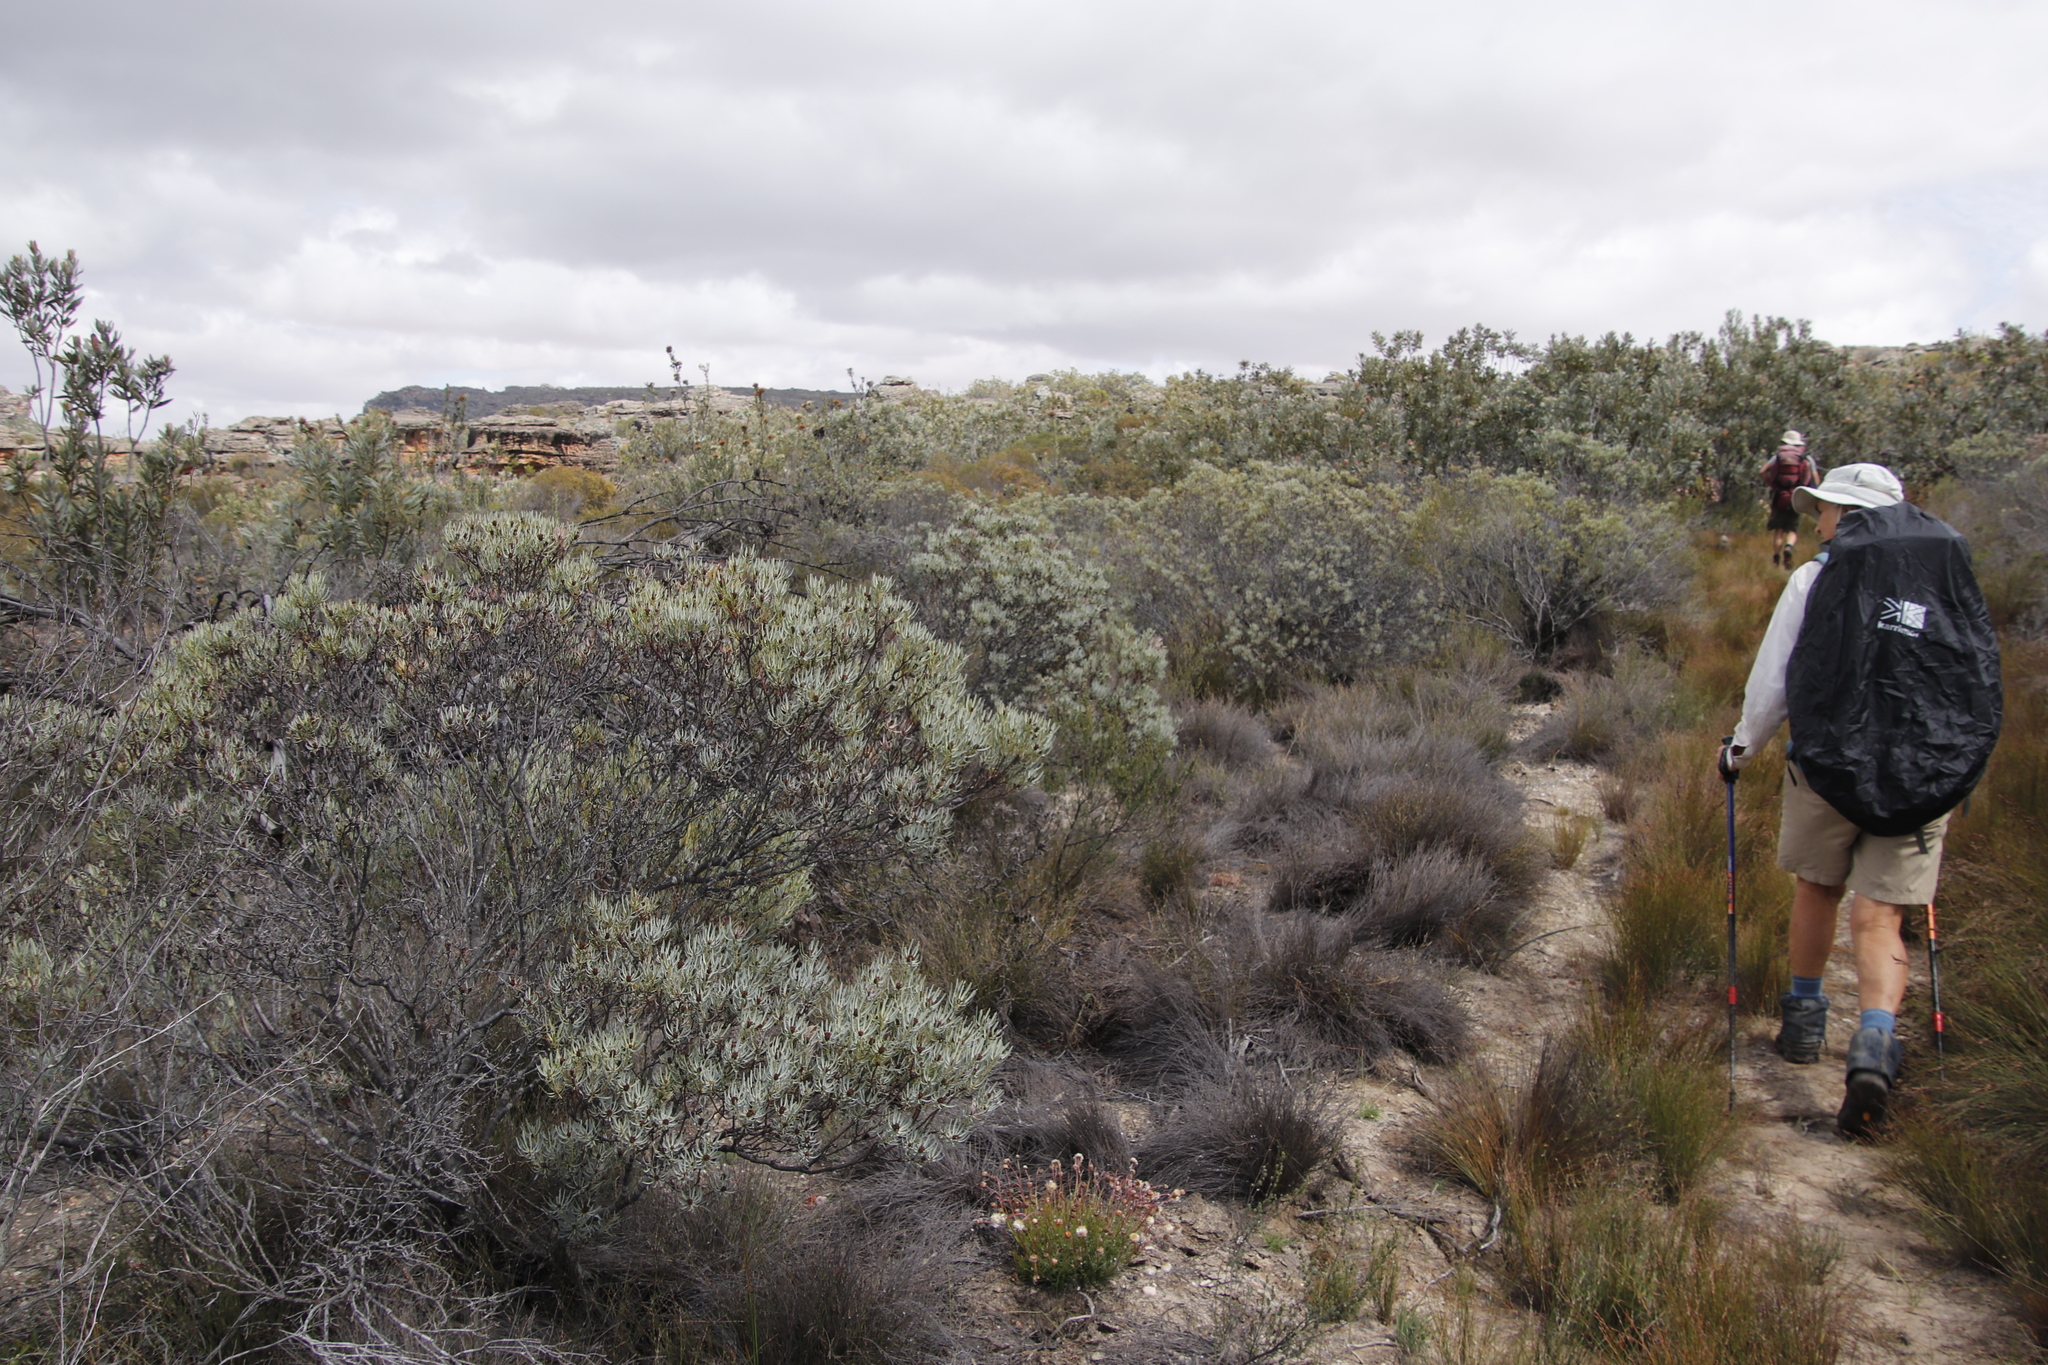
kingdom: Plantae
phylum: Tracheophyta
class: Magnoliopsida
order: Proteales
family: Proteaceae
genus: Leucadendron
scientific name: Leucadendron meyerianum
